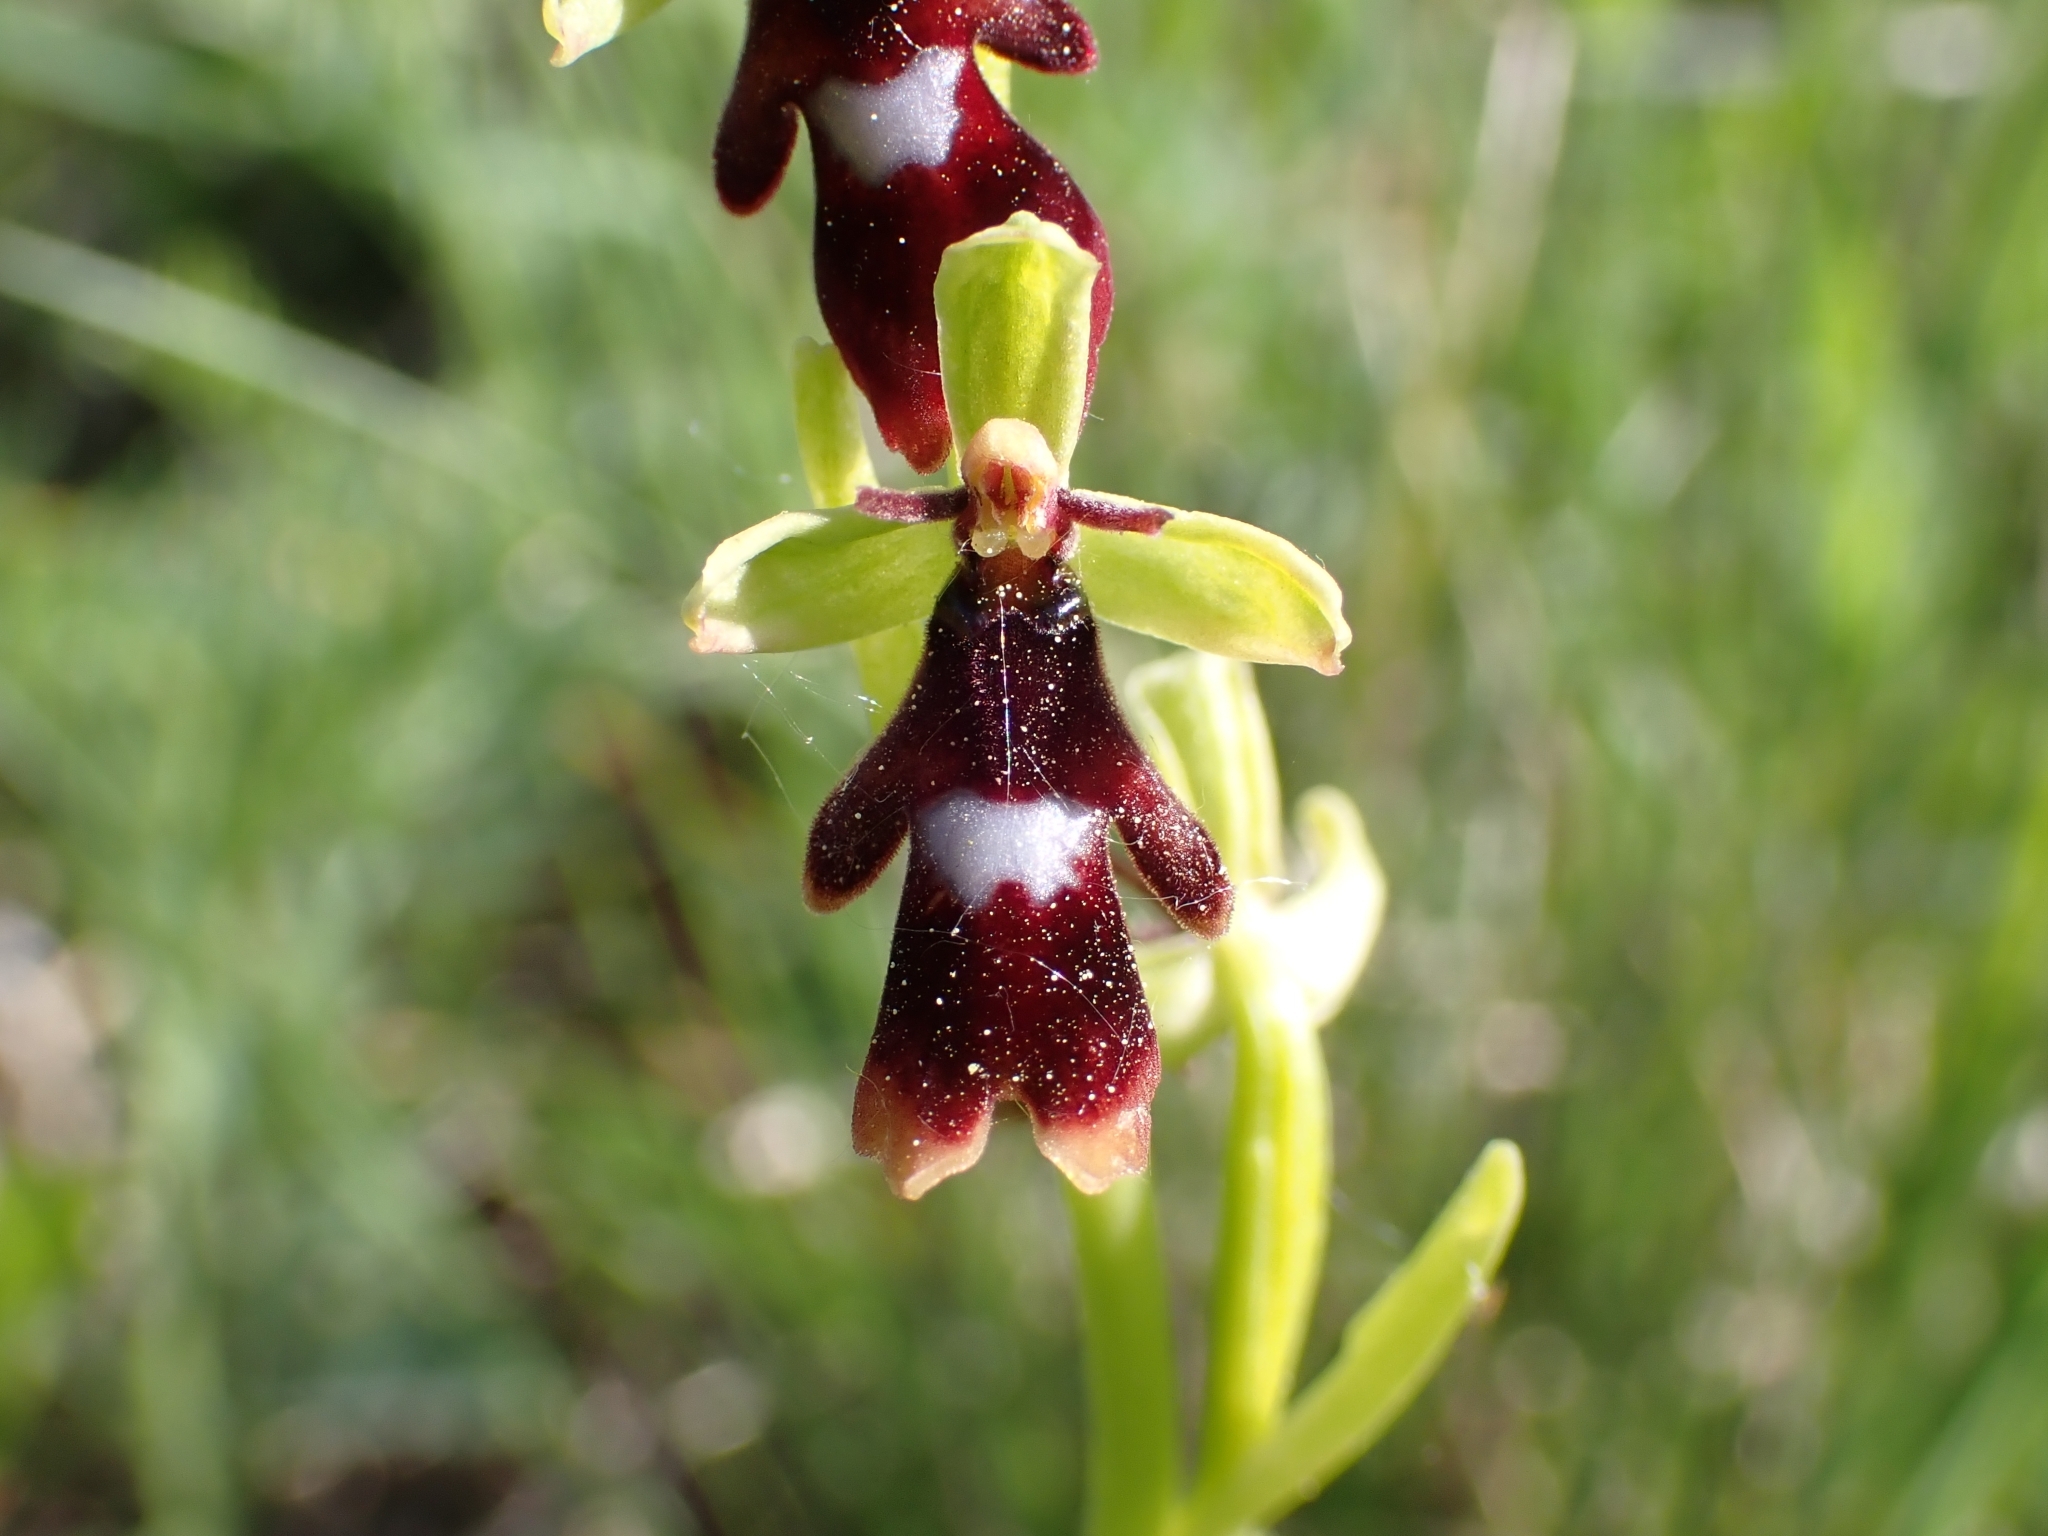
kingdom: Plantae
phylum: Tracheophyta
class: Liliopsida
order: Asparagales
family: Orchidaceae
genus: Ophrys
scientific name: Ophrys insectifera
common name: Fly orchid
